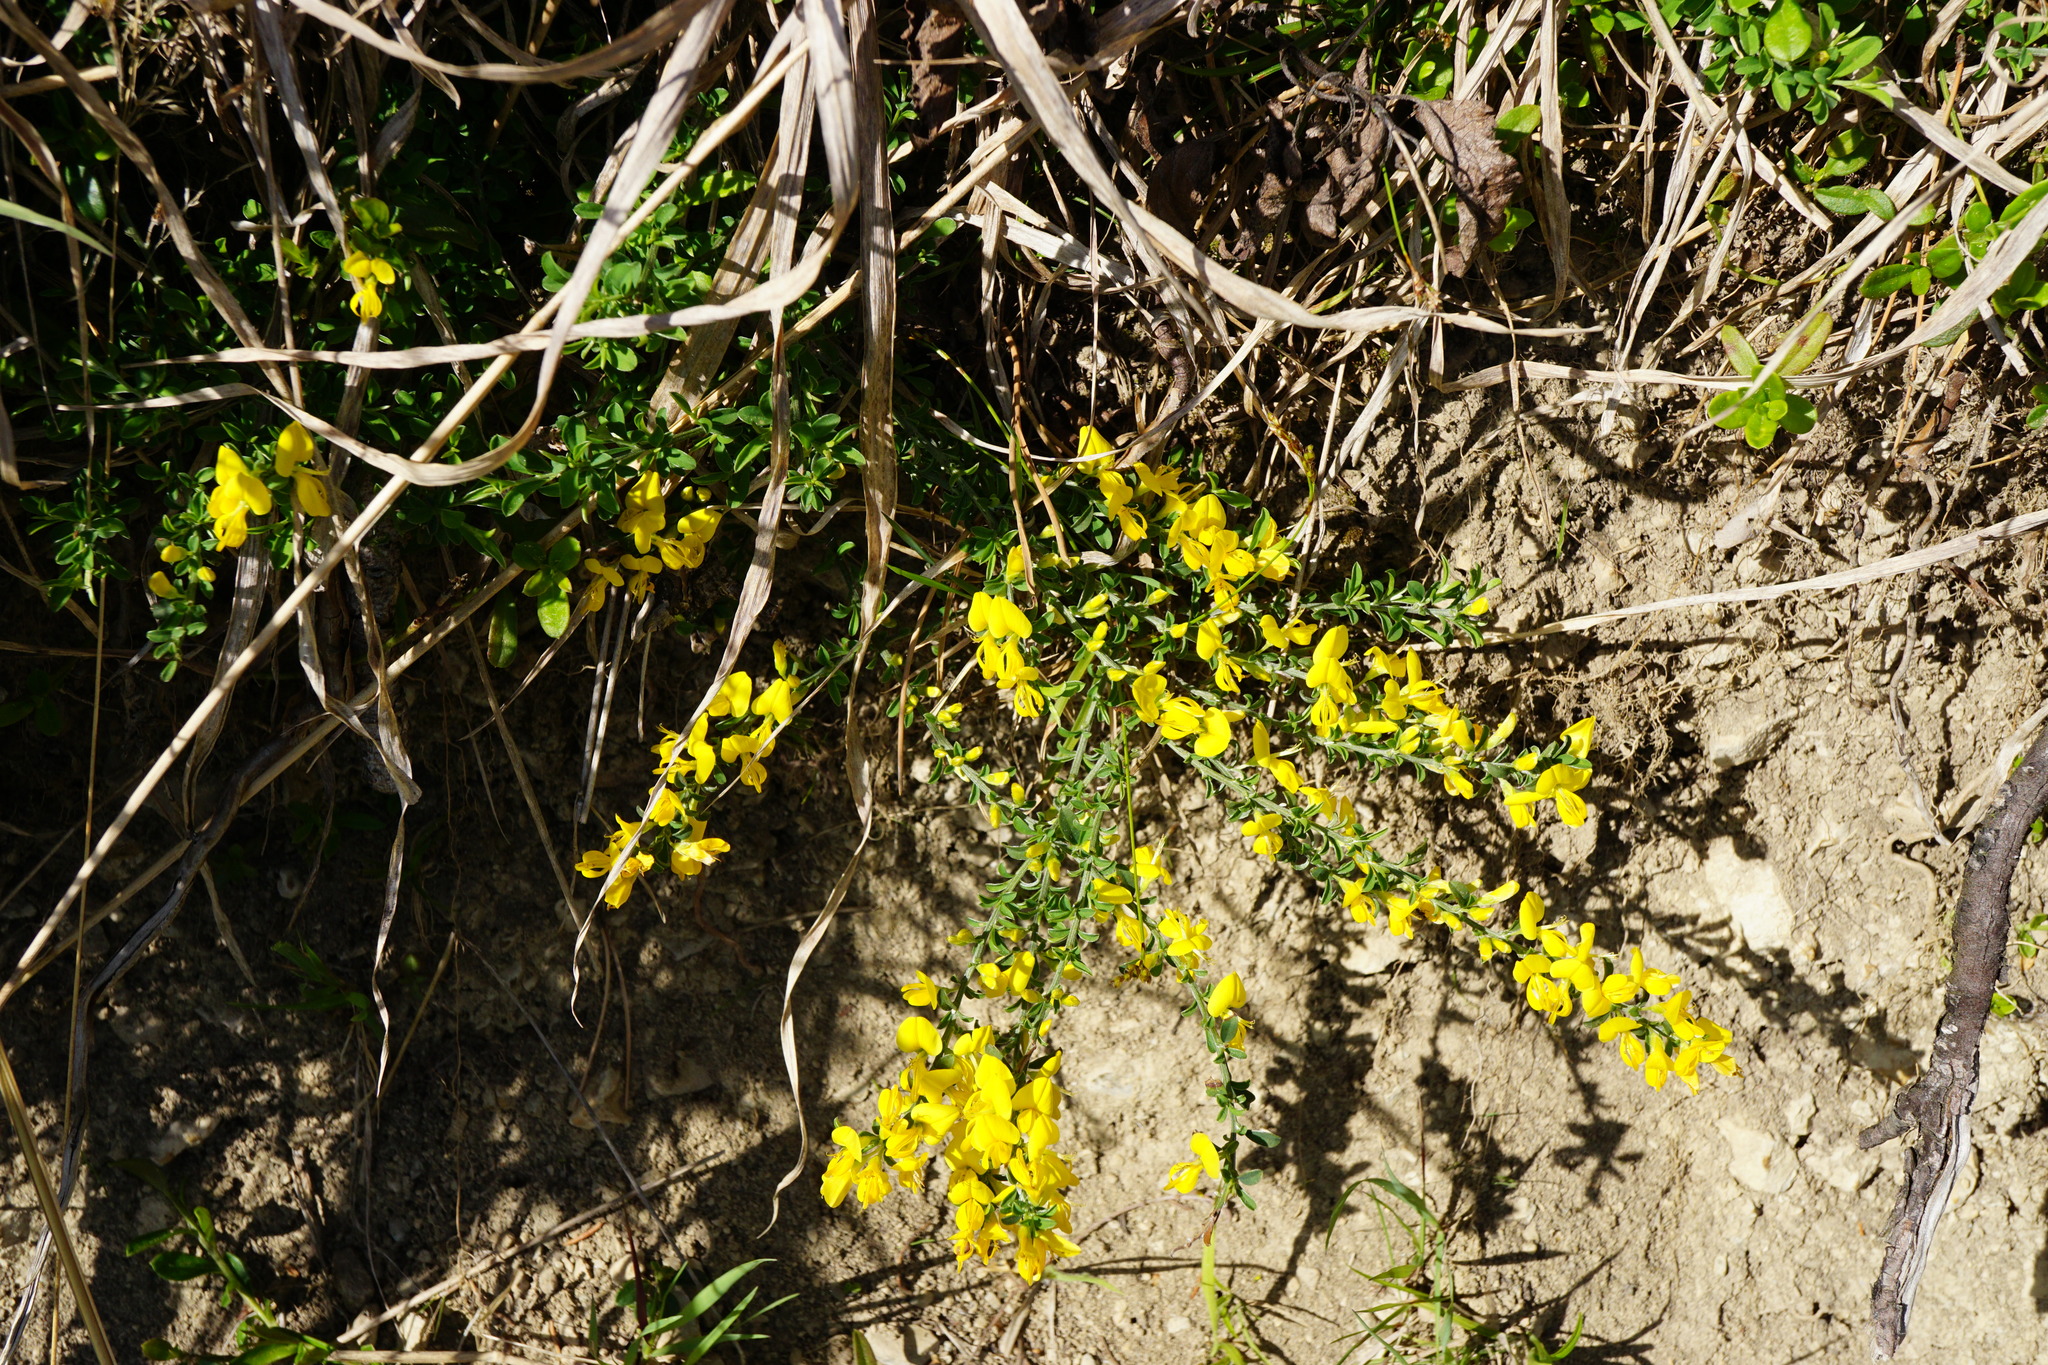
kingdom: Plantae
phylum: Tracheophyta
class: Magnoliopsida
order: Fabales
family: Fabaceae
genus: Genista
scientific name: Genista pilosa
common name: Hairy greenweed
